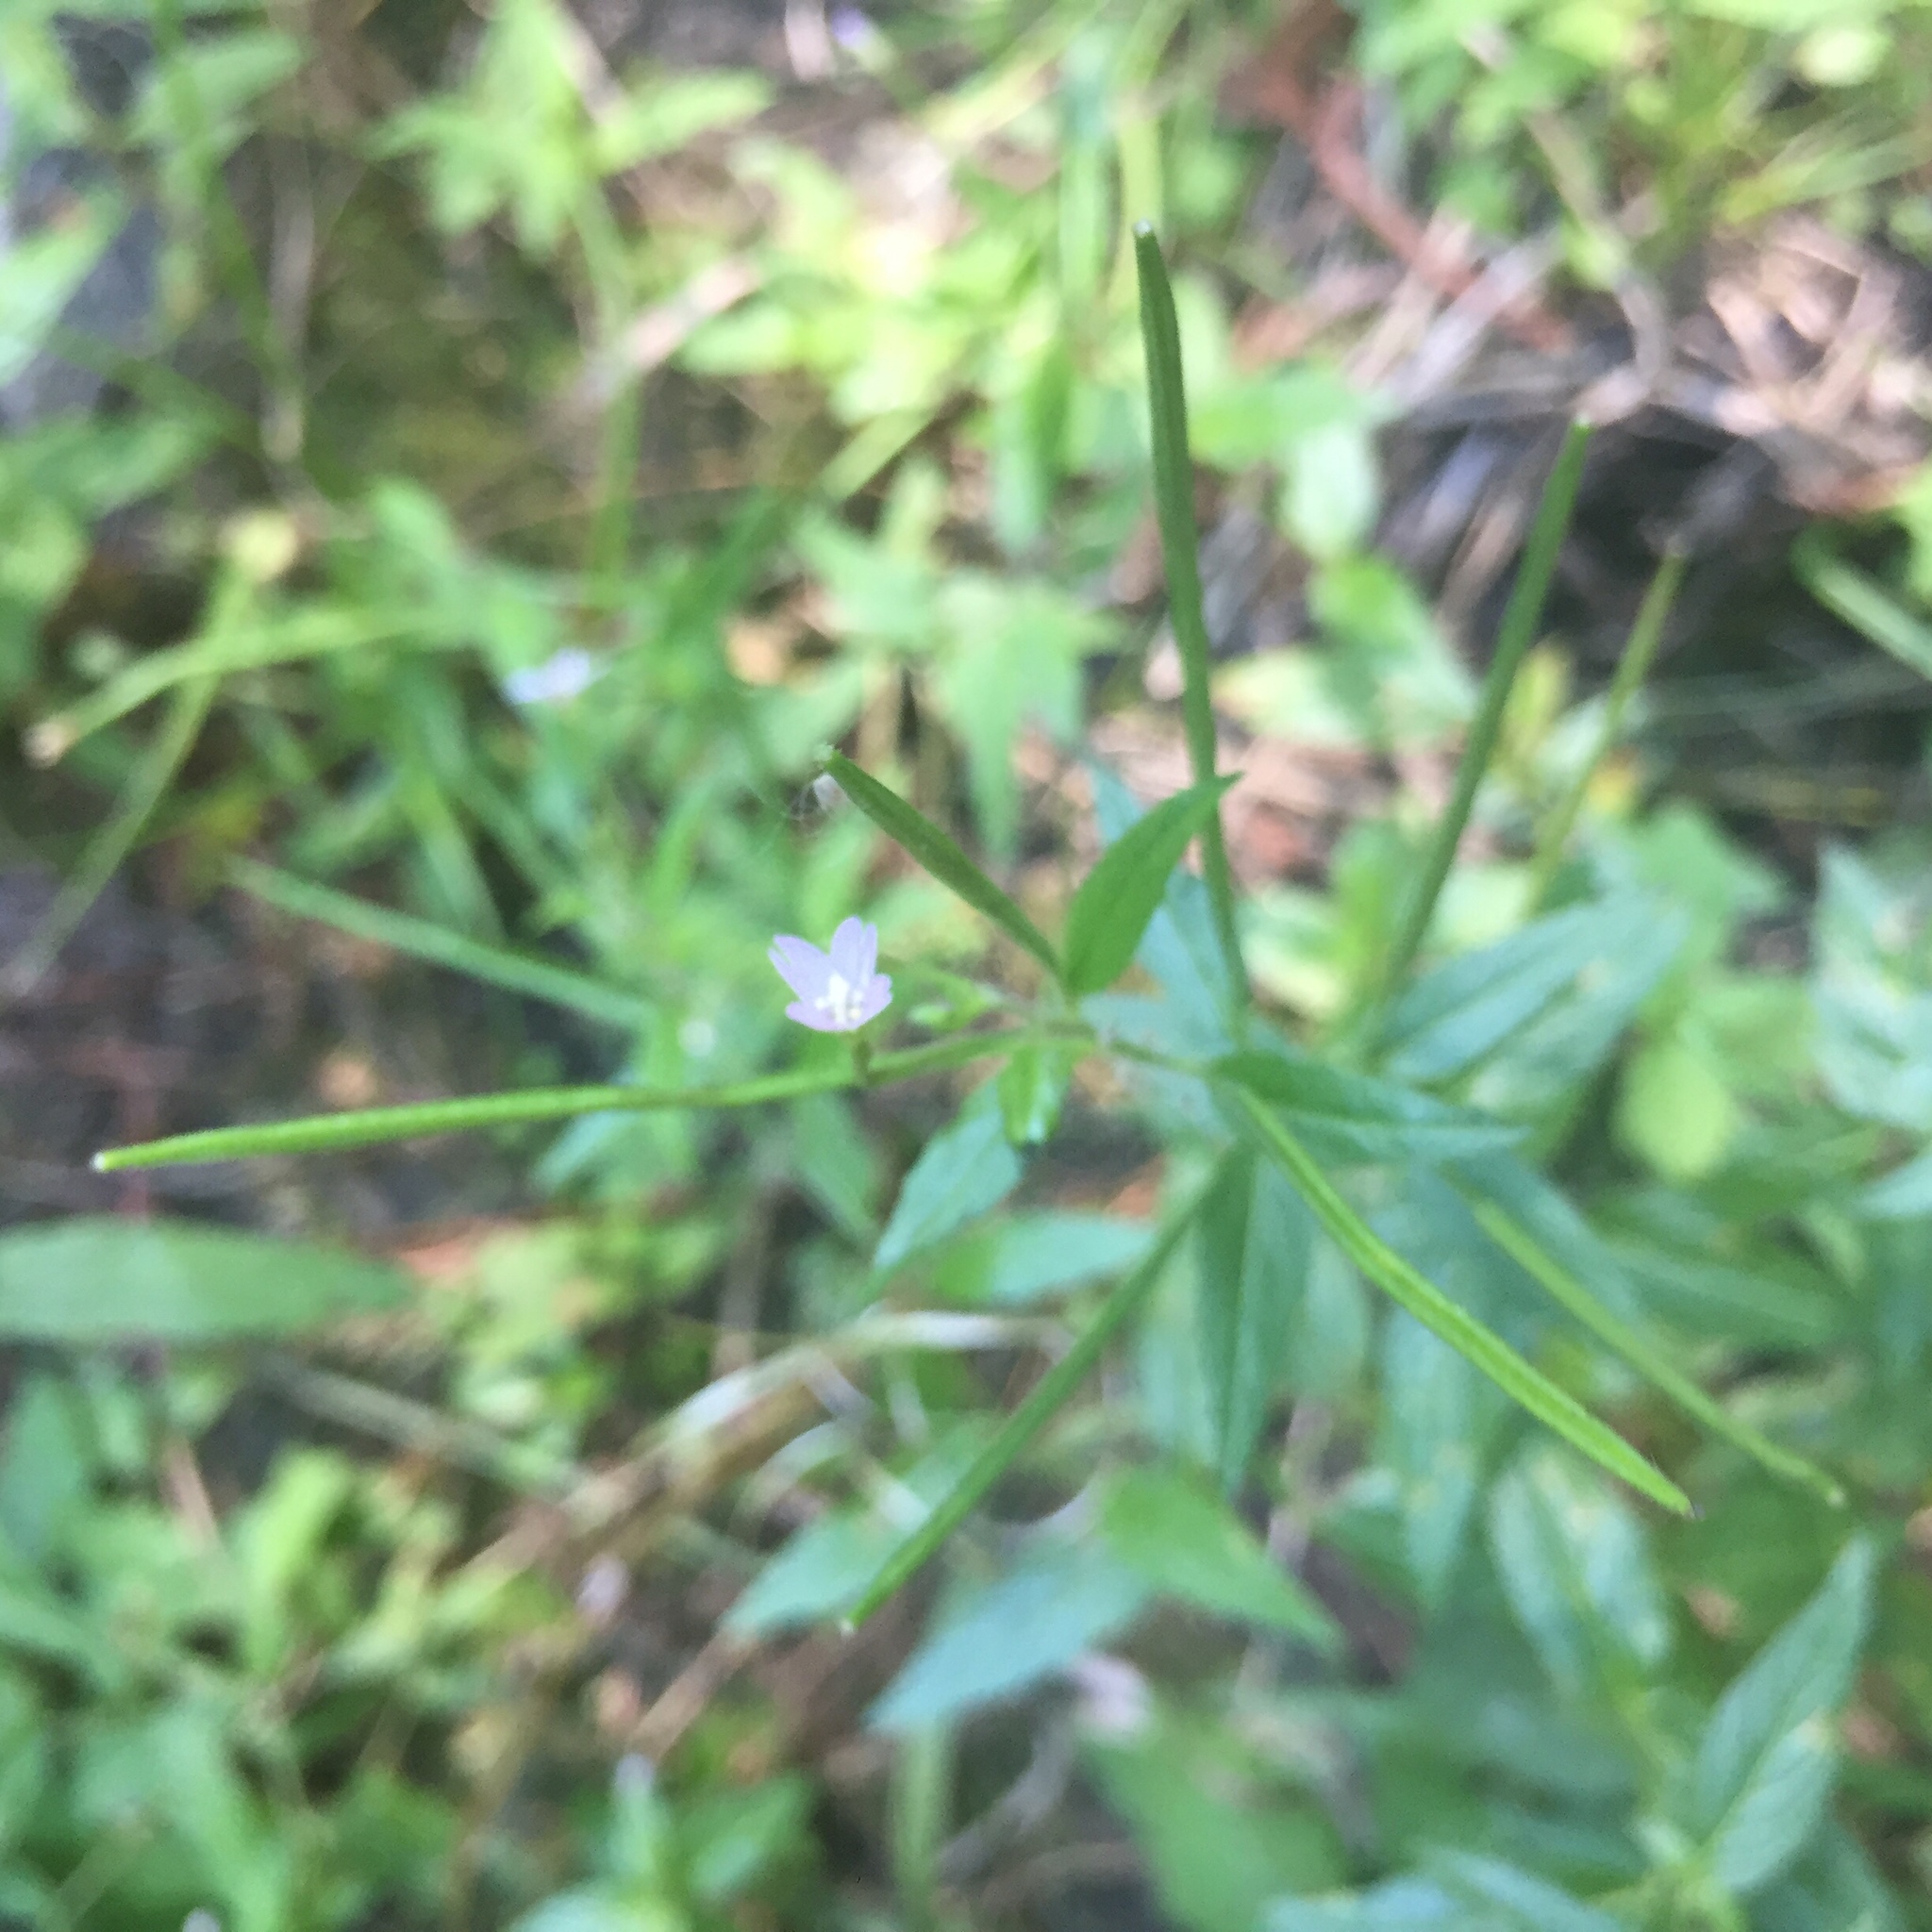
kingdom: Plantae
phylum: Tracheophyta
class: Magnoliopsida
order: Myrtales
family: Onagraceae
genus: Epilobium
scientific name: Epilobium ciliatum
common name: American willowherb
